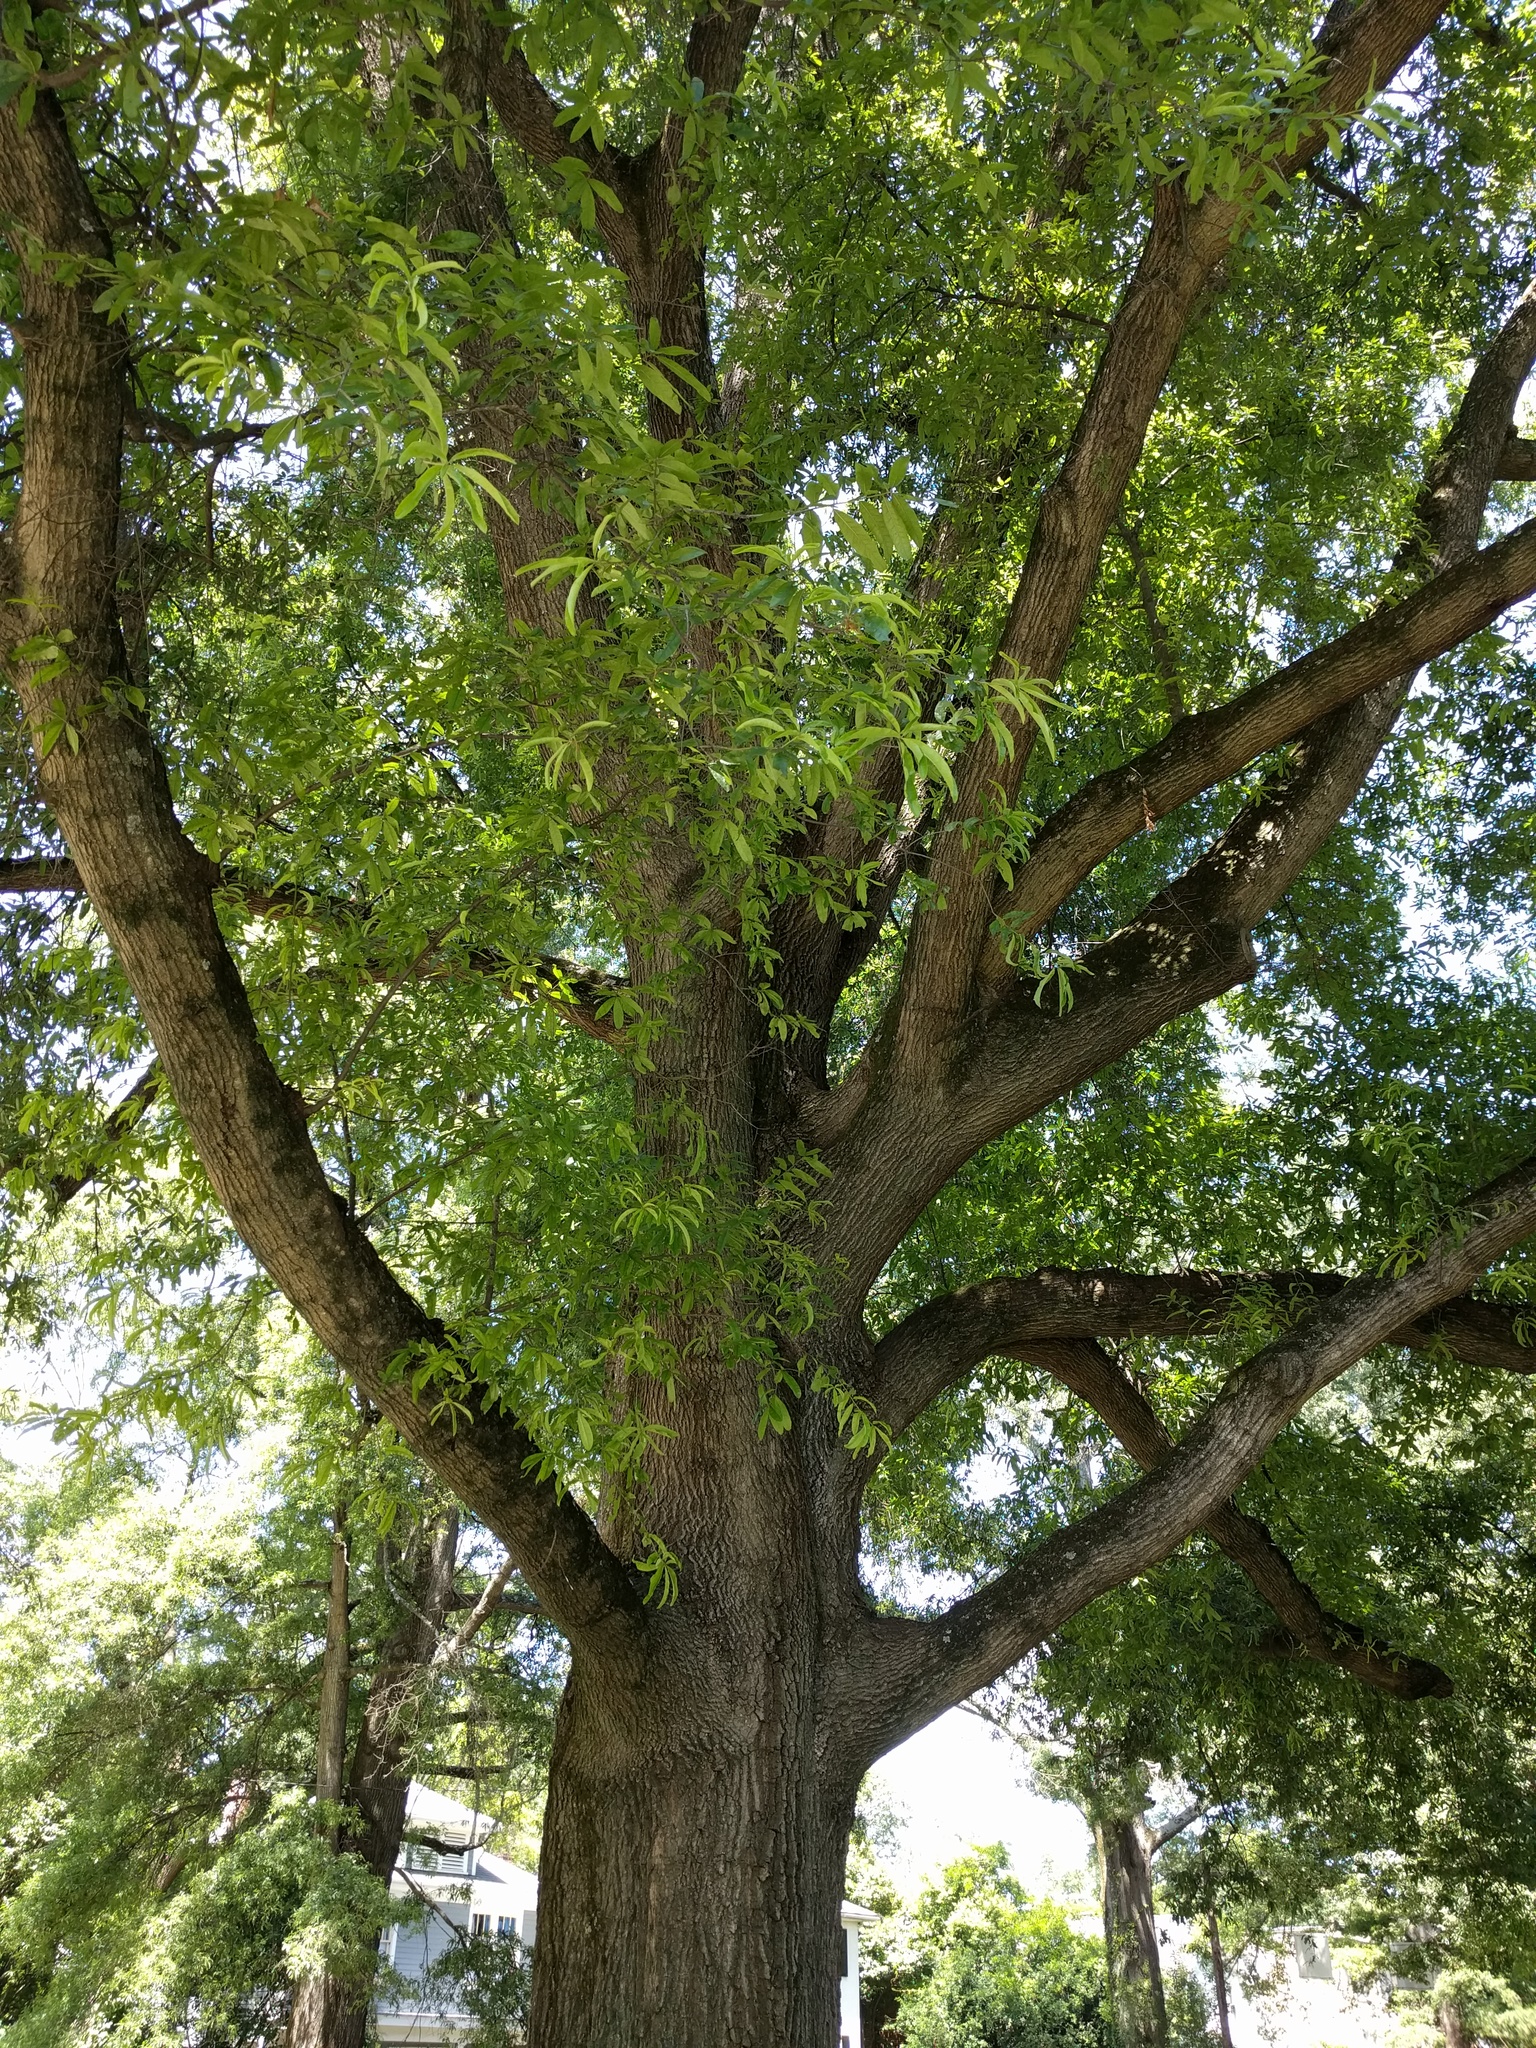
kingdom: Plantae
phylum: Tracheophyta
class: Magnoliopsida
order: Fagales
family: Fagaceae
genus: Quercus
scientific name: Quercus phellos
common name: Willow oak
